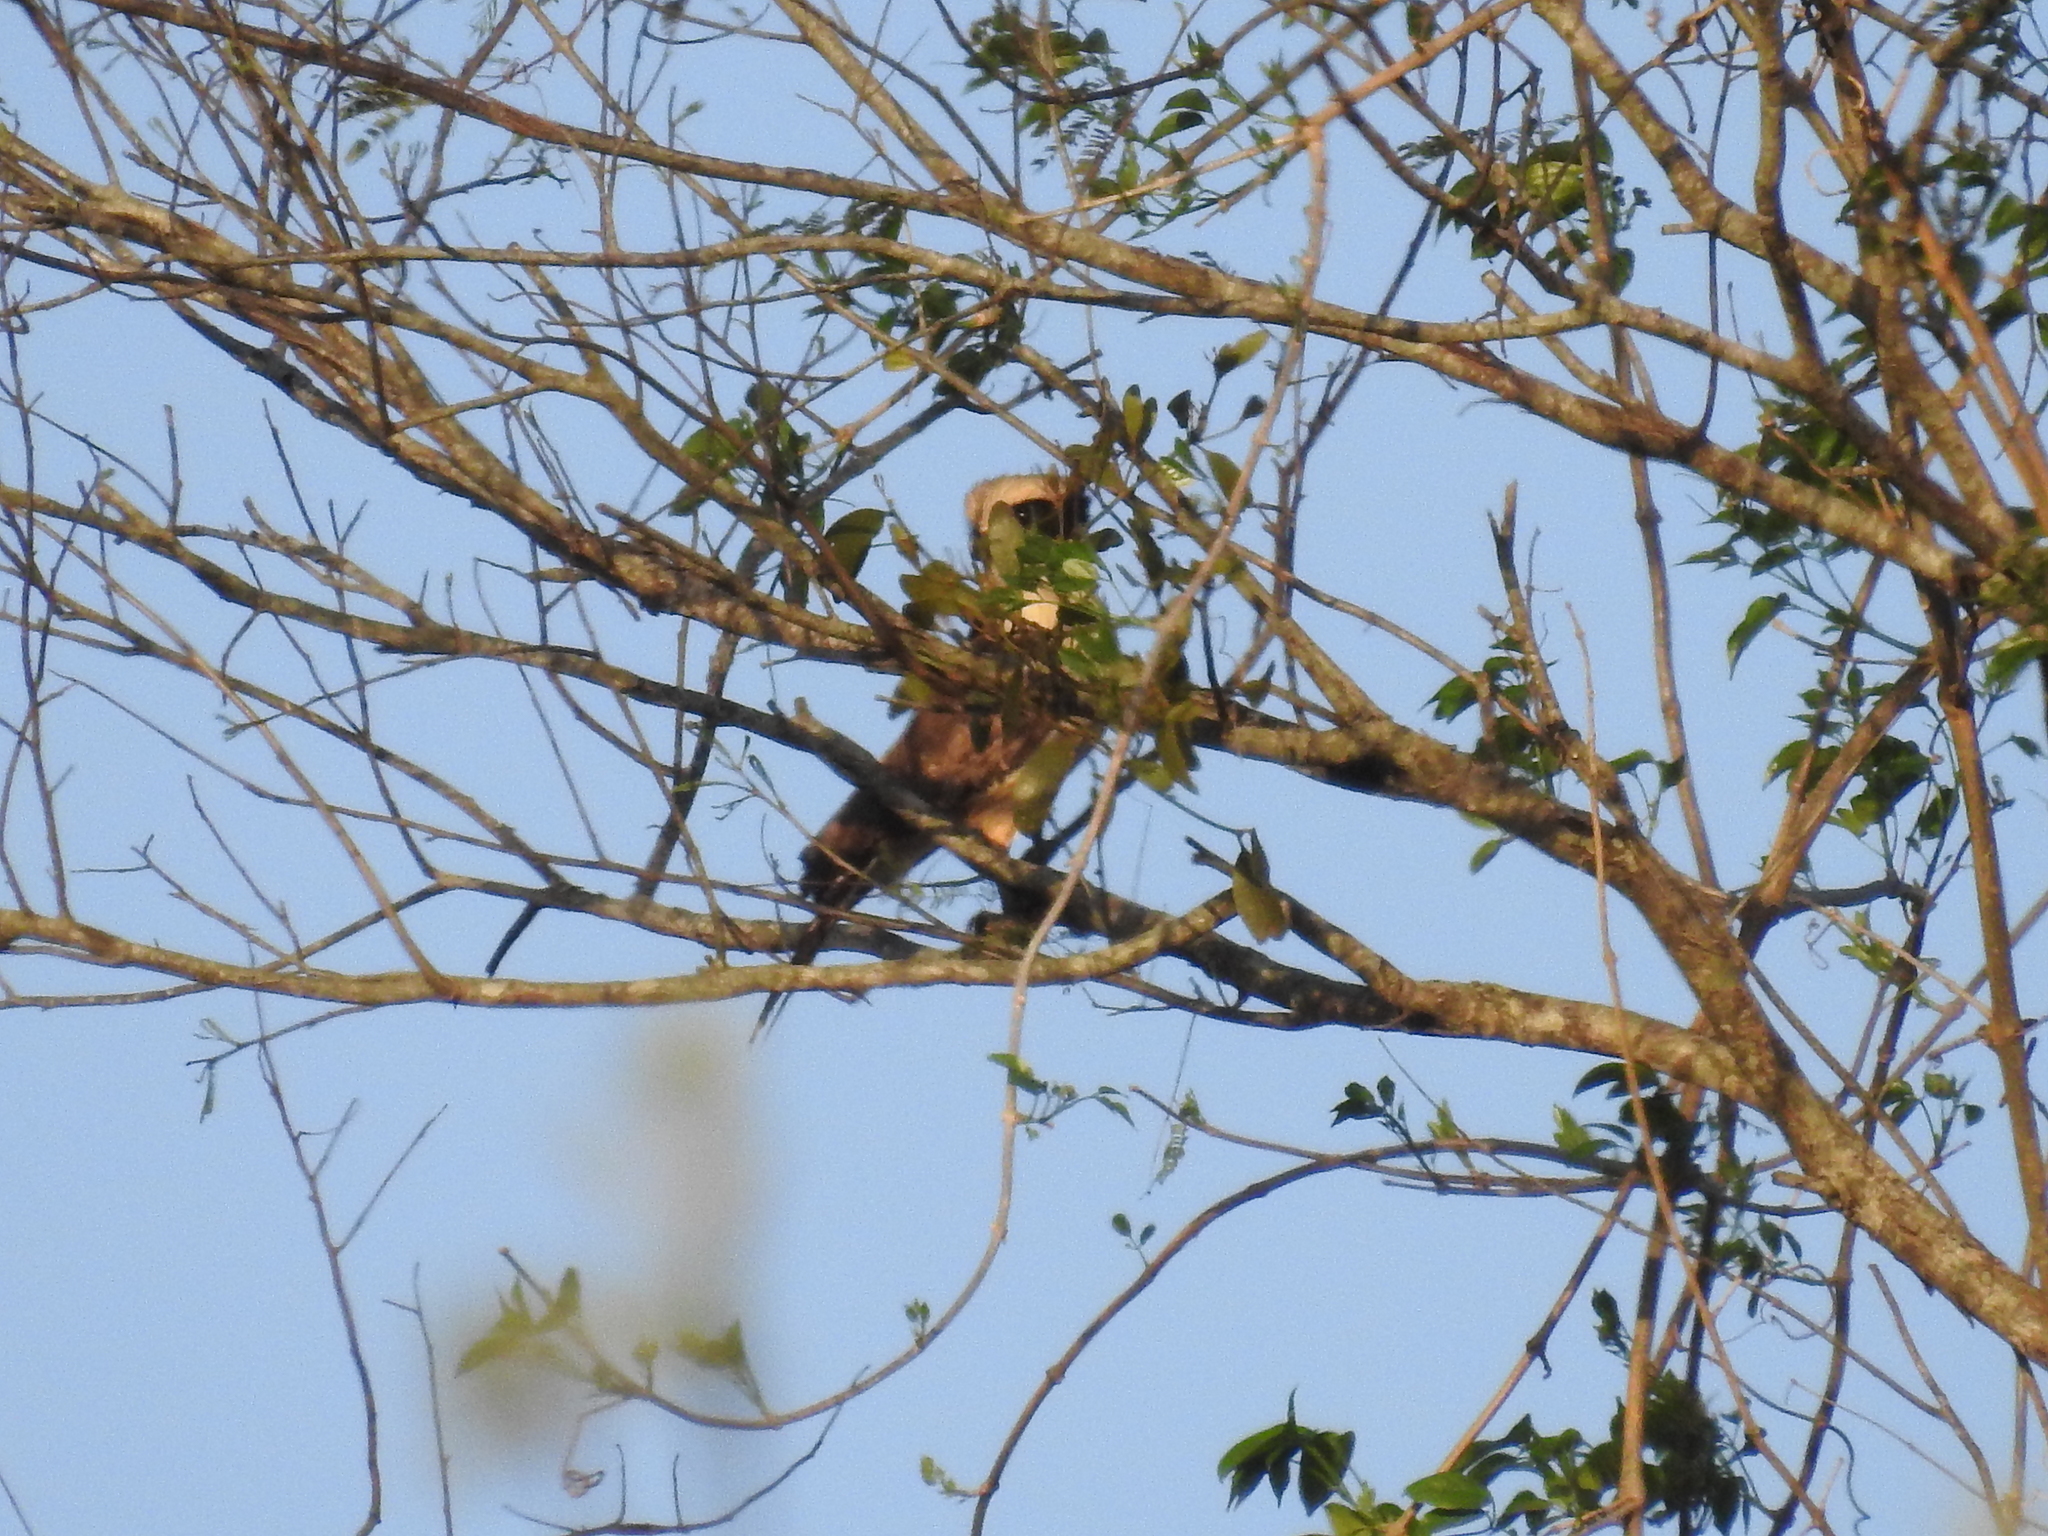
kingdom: Animalia
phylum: Chordata
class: Aves
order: Falconiformes
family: Falconidae
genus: Herpetotheres
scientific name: Herpetotheres cachinnans
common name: Laughing falcon
